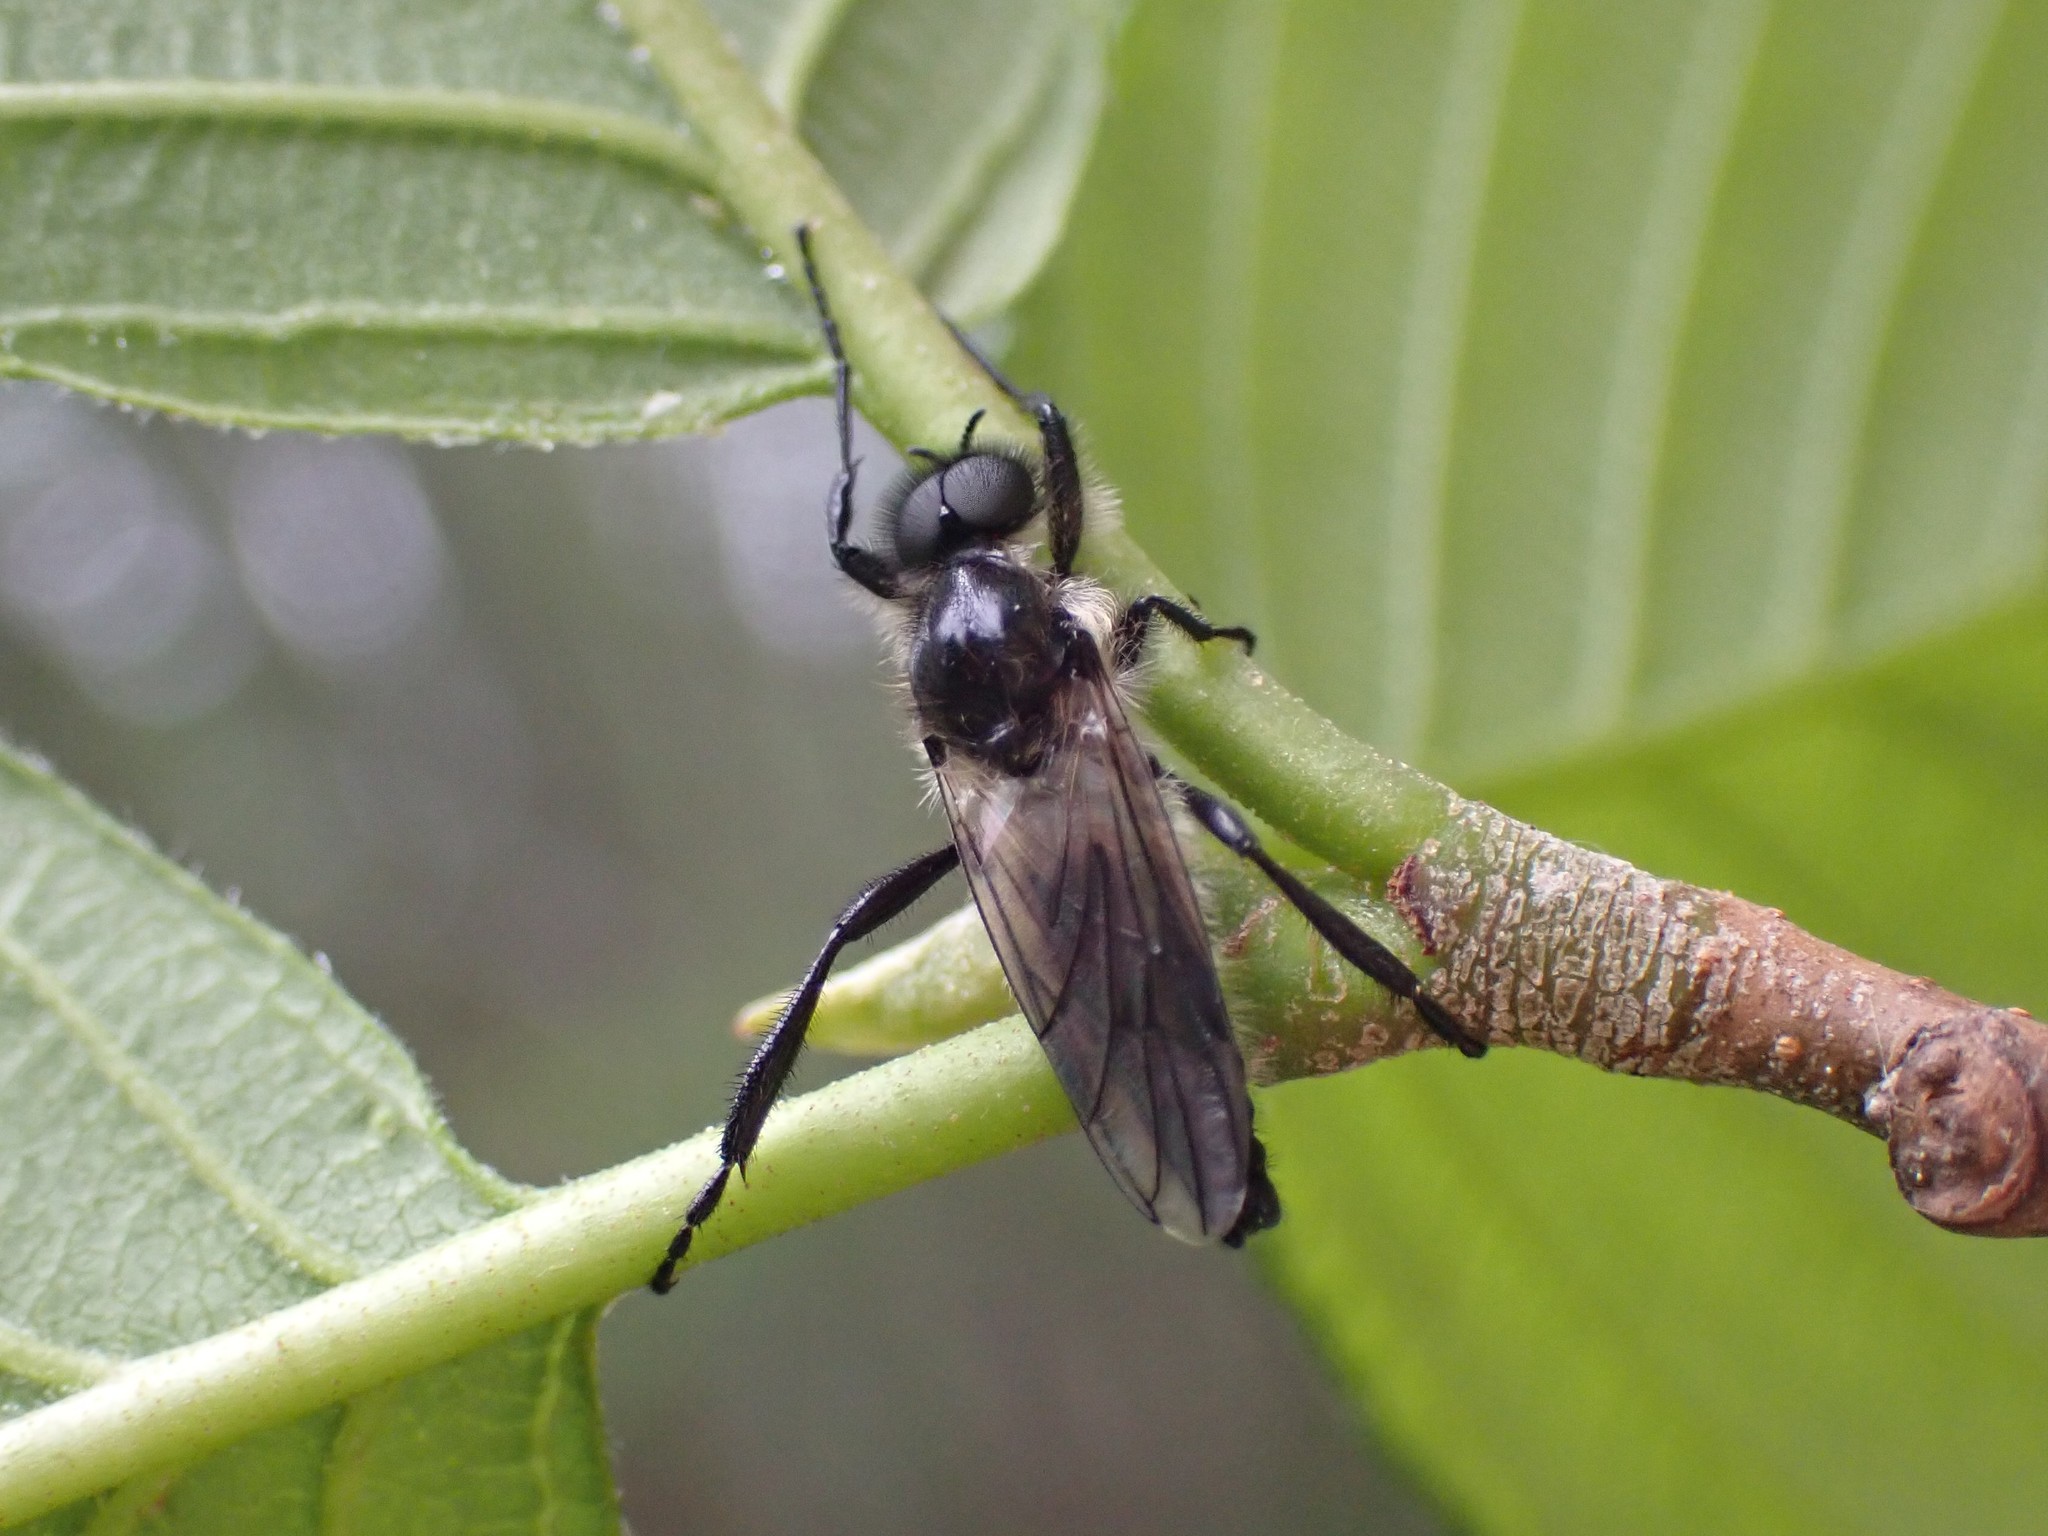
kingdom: Animalia
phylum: Arthropoda
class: Insecta
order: Diptera
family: Bibionidae
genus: Bibio
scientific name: Bibio albipennis
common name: White-winged march fly
